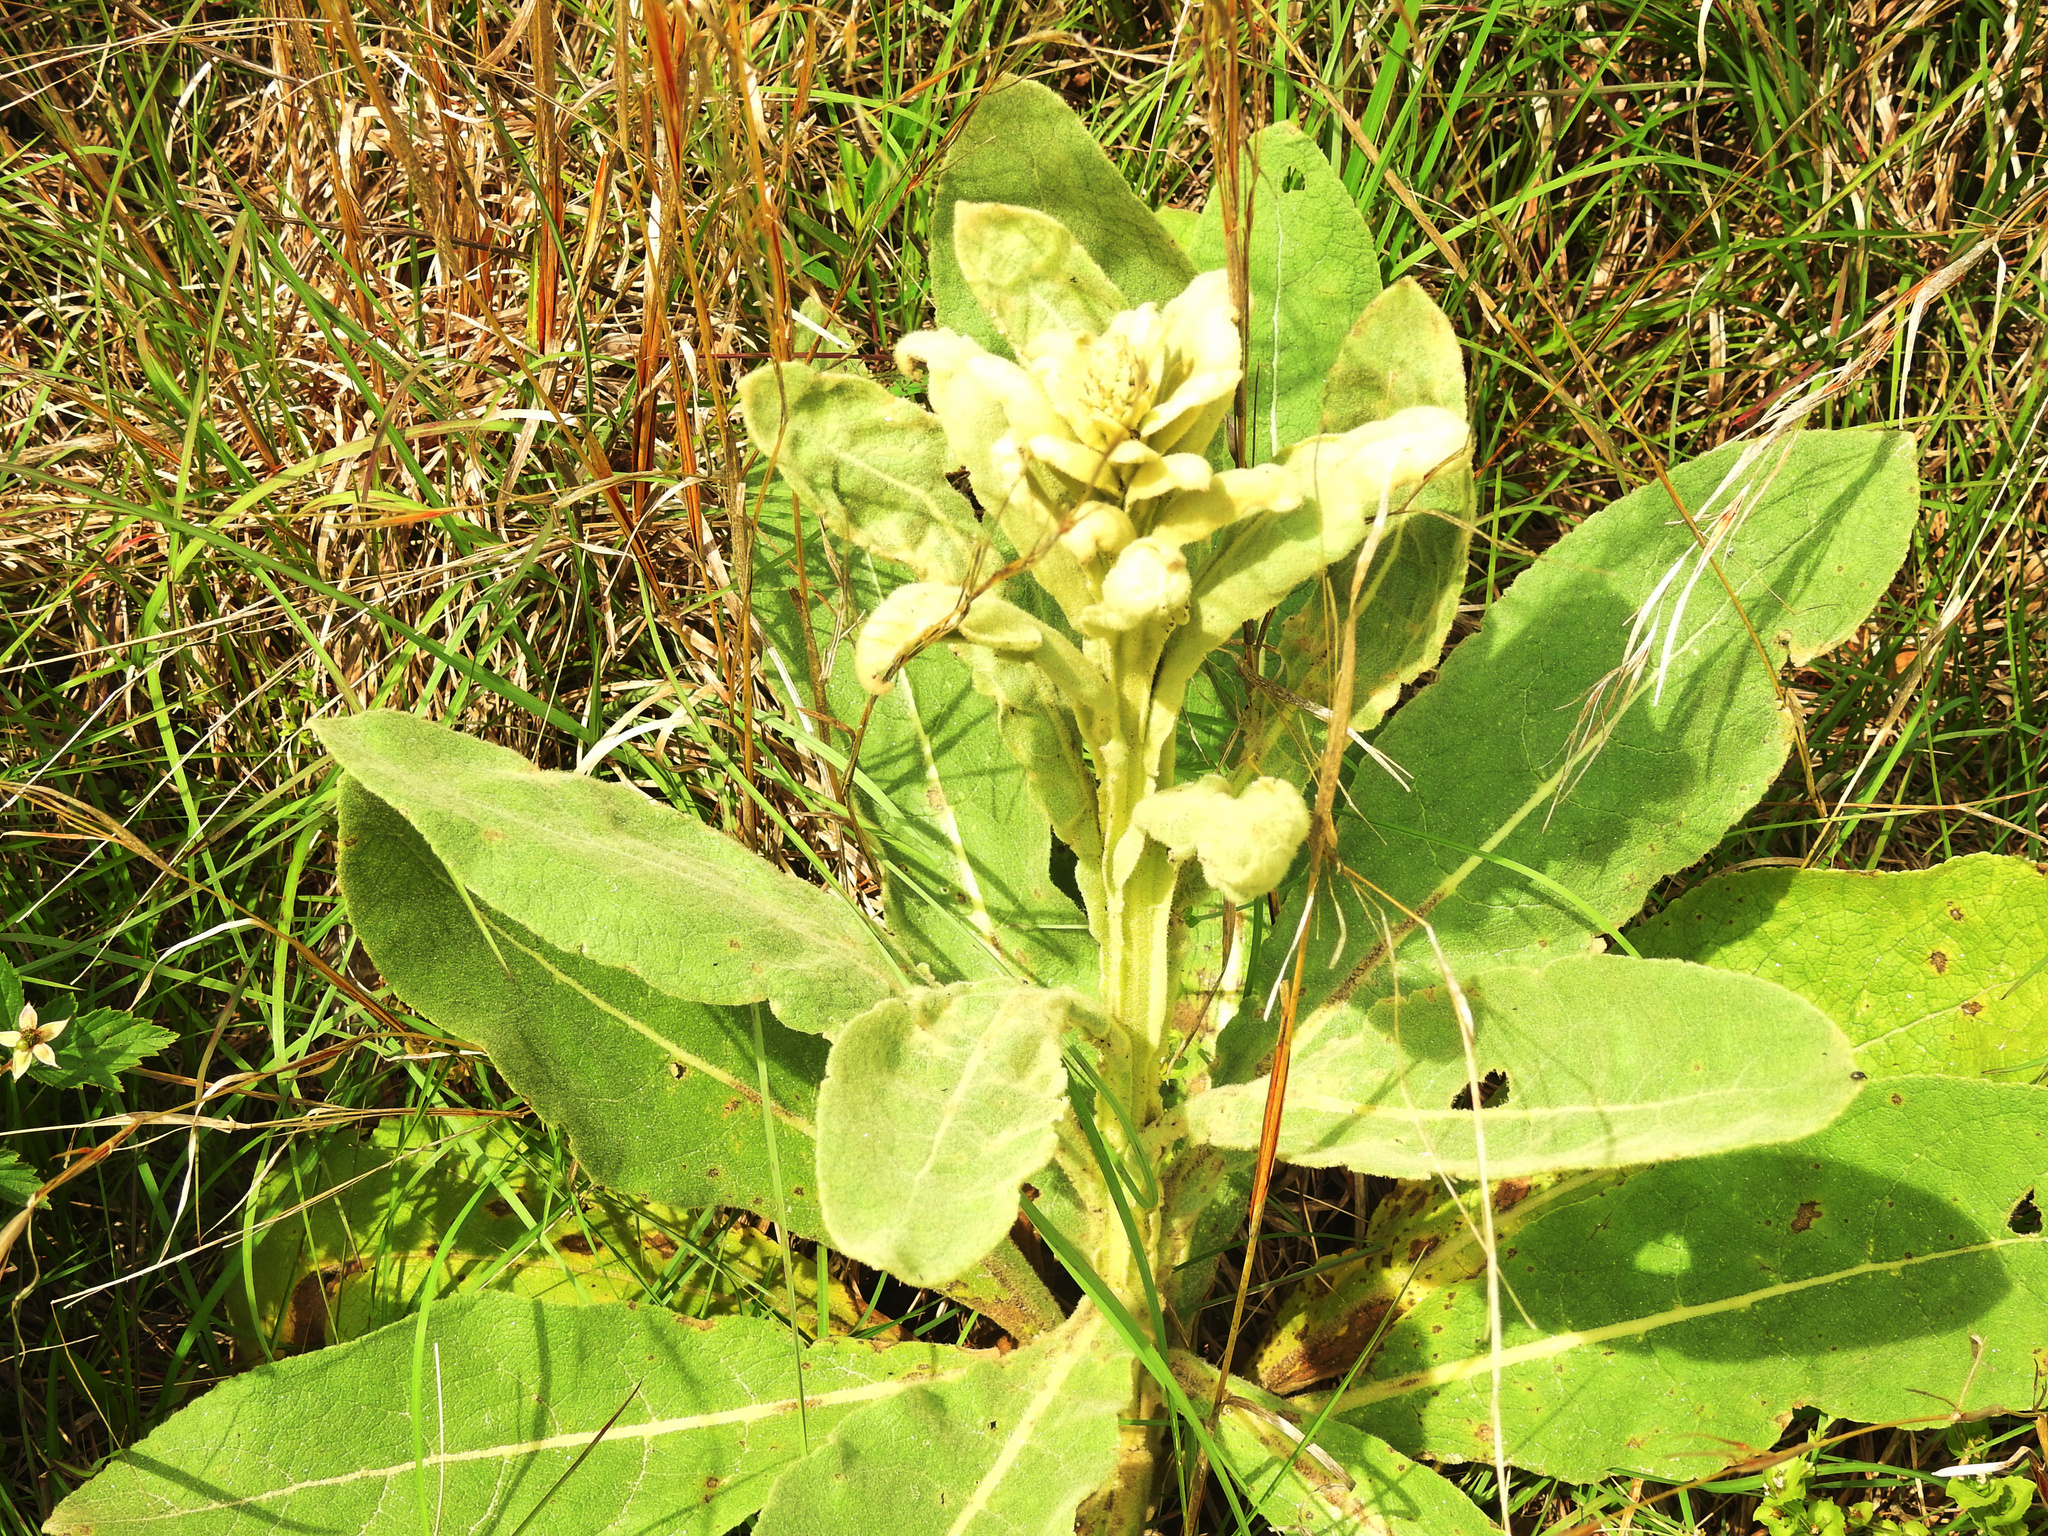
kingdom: Plantae
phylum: Tracheophyta
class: Magnoliopsida
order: Lamiales
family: Scrophulariaceae
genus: Verbascum
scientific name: Verbascum thapsus
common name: Common mullein
